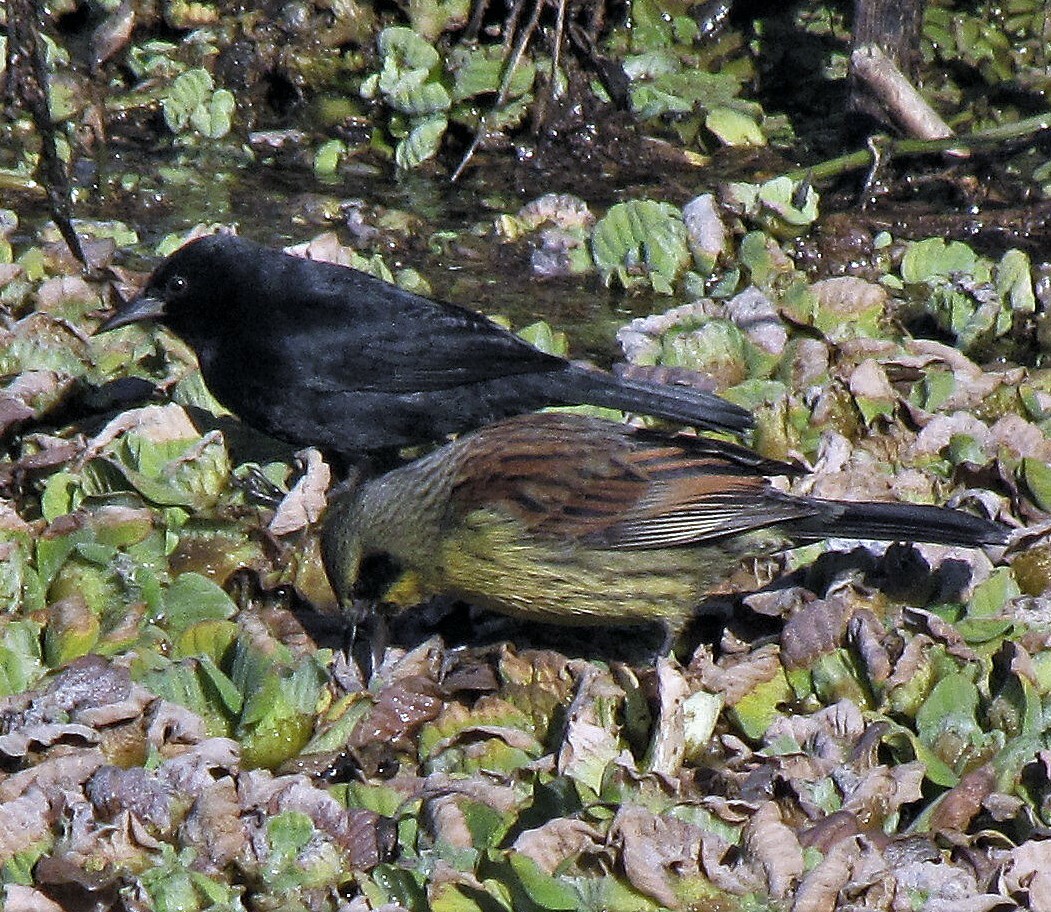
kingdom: Animalia
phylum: Chordata
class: Aves
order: Passeriformes
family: Icteridae
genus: Agelasticus
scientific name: Agelasticus cyanopus
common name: Unicolored blackbird
